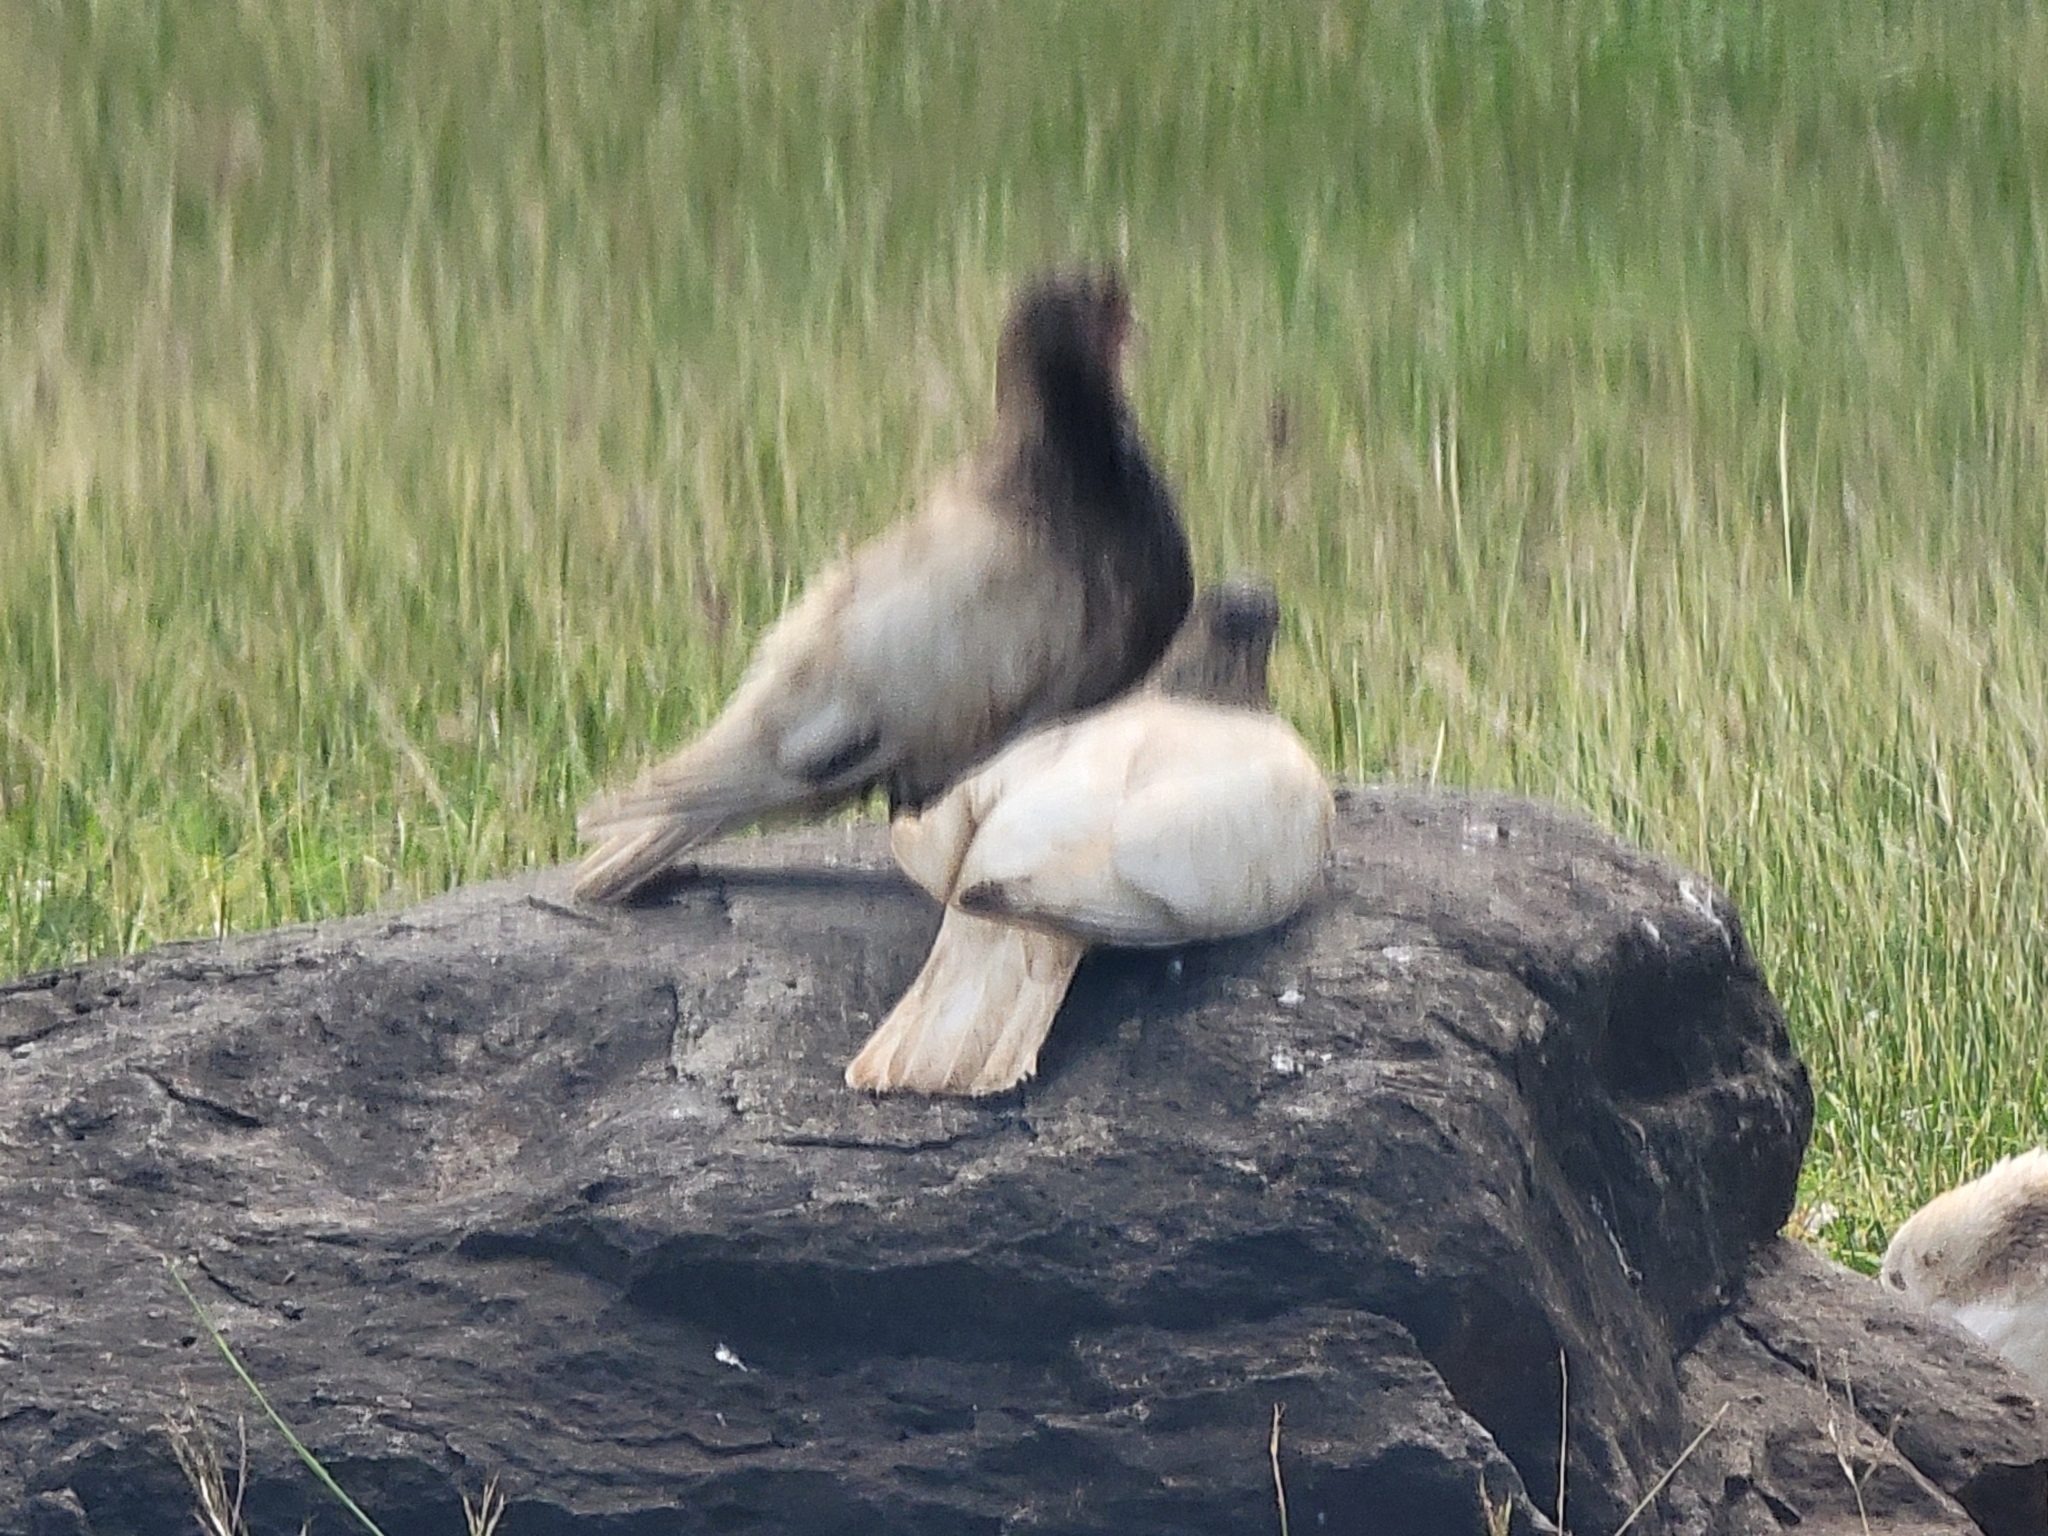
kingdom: Animalia
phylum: Chordata
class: Aves
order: Columbiformes
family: Columbidae
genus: Columba
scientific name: Columba livia
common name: Rock pigeon
